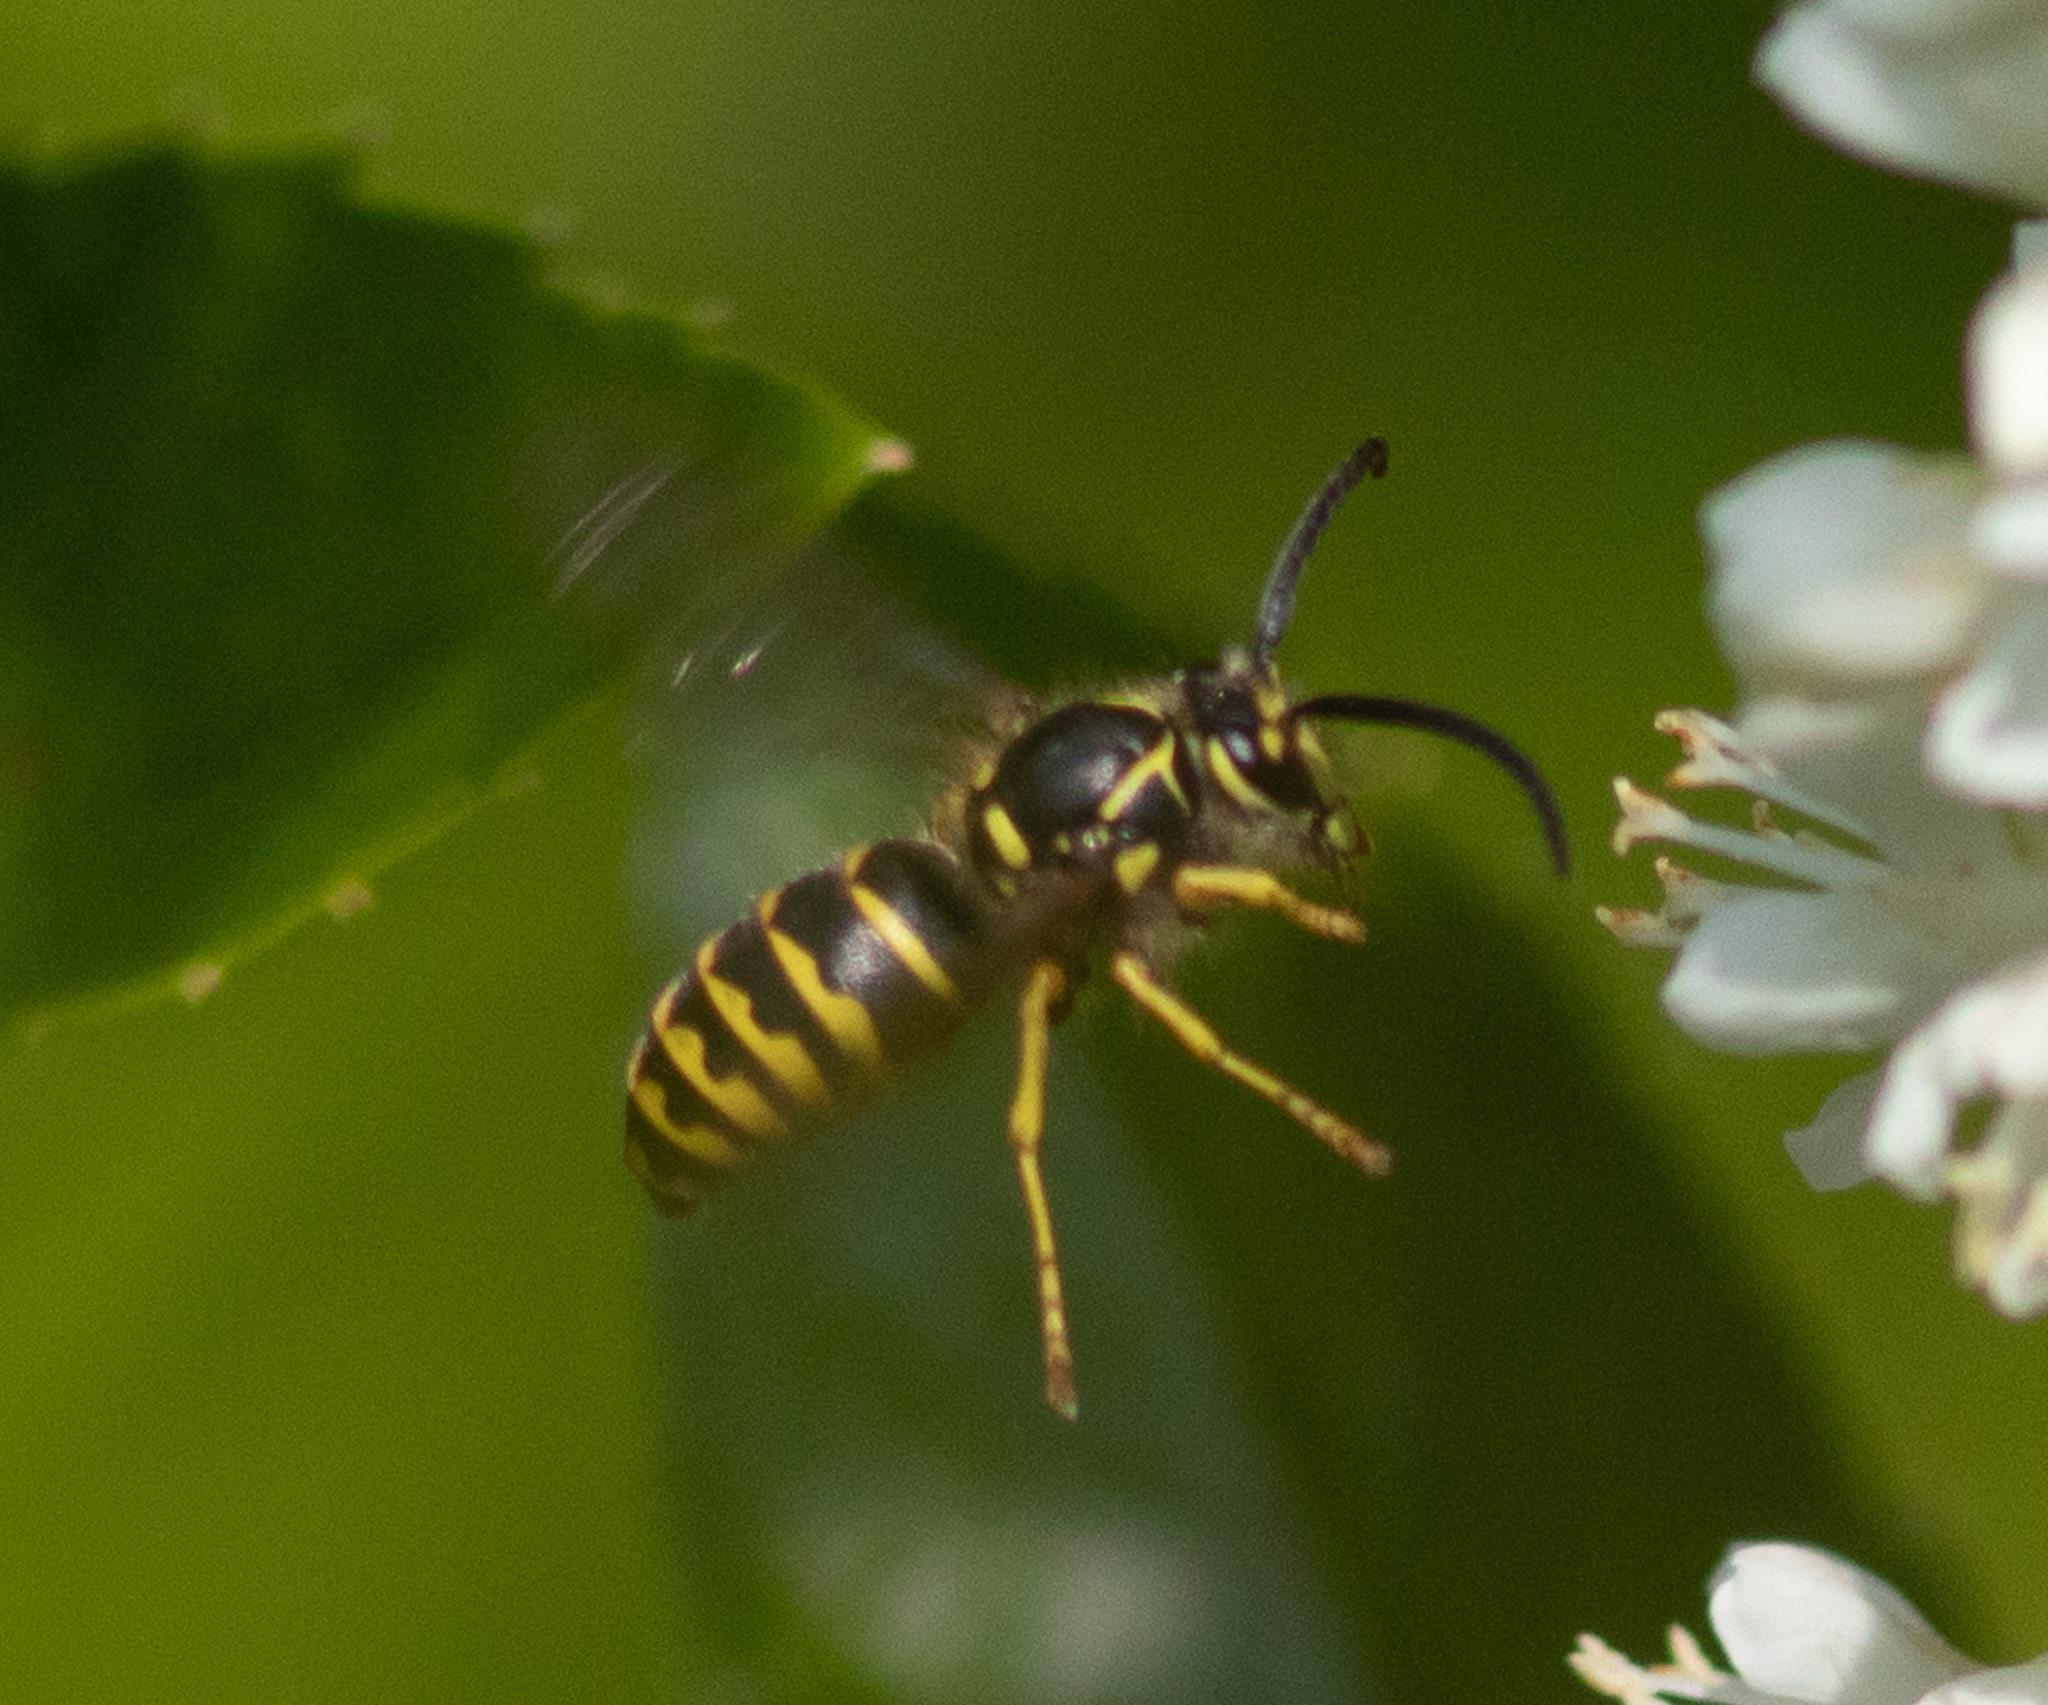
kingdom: Animalia
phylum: Arthropoda
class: Insecta
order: Hymenoptera
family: Vespidae
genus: Dolichovespula
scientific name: Dolichovespula arenaria
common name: Aerial yellowjacket
